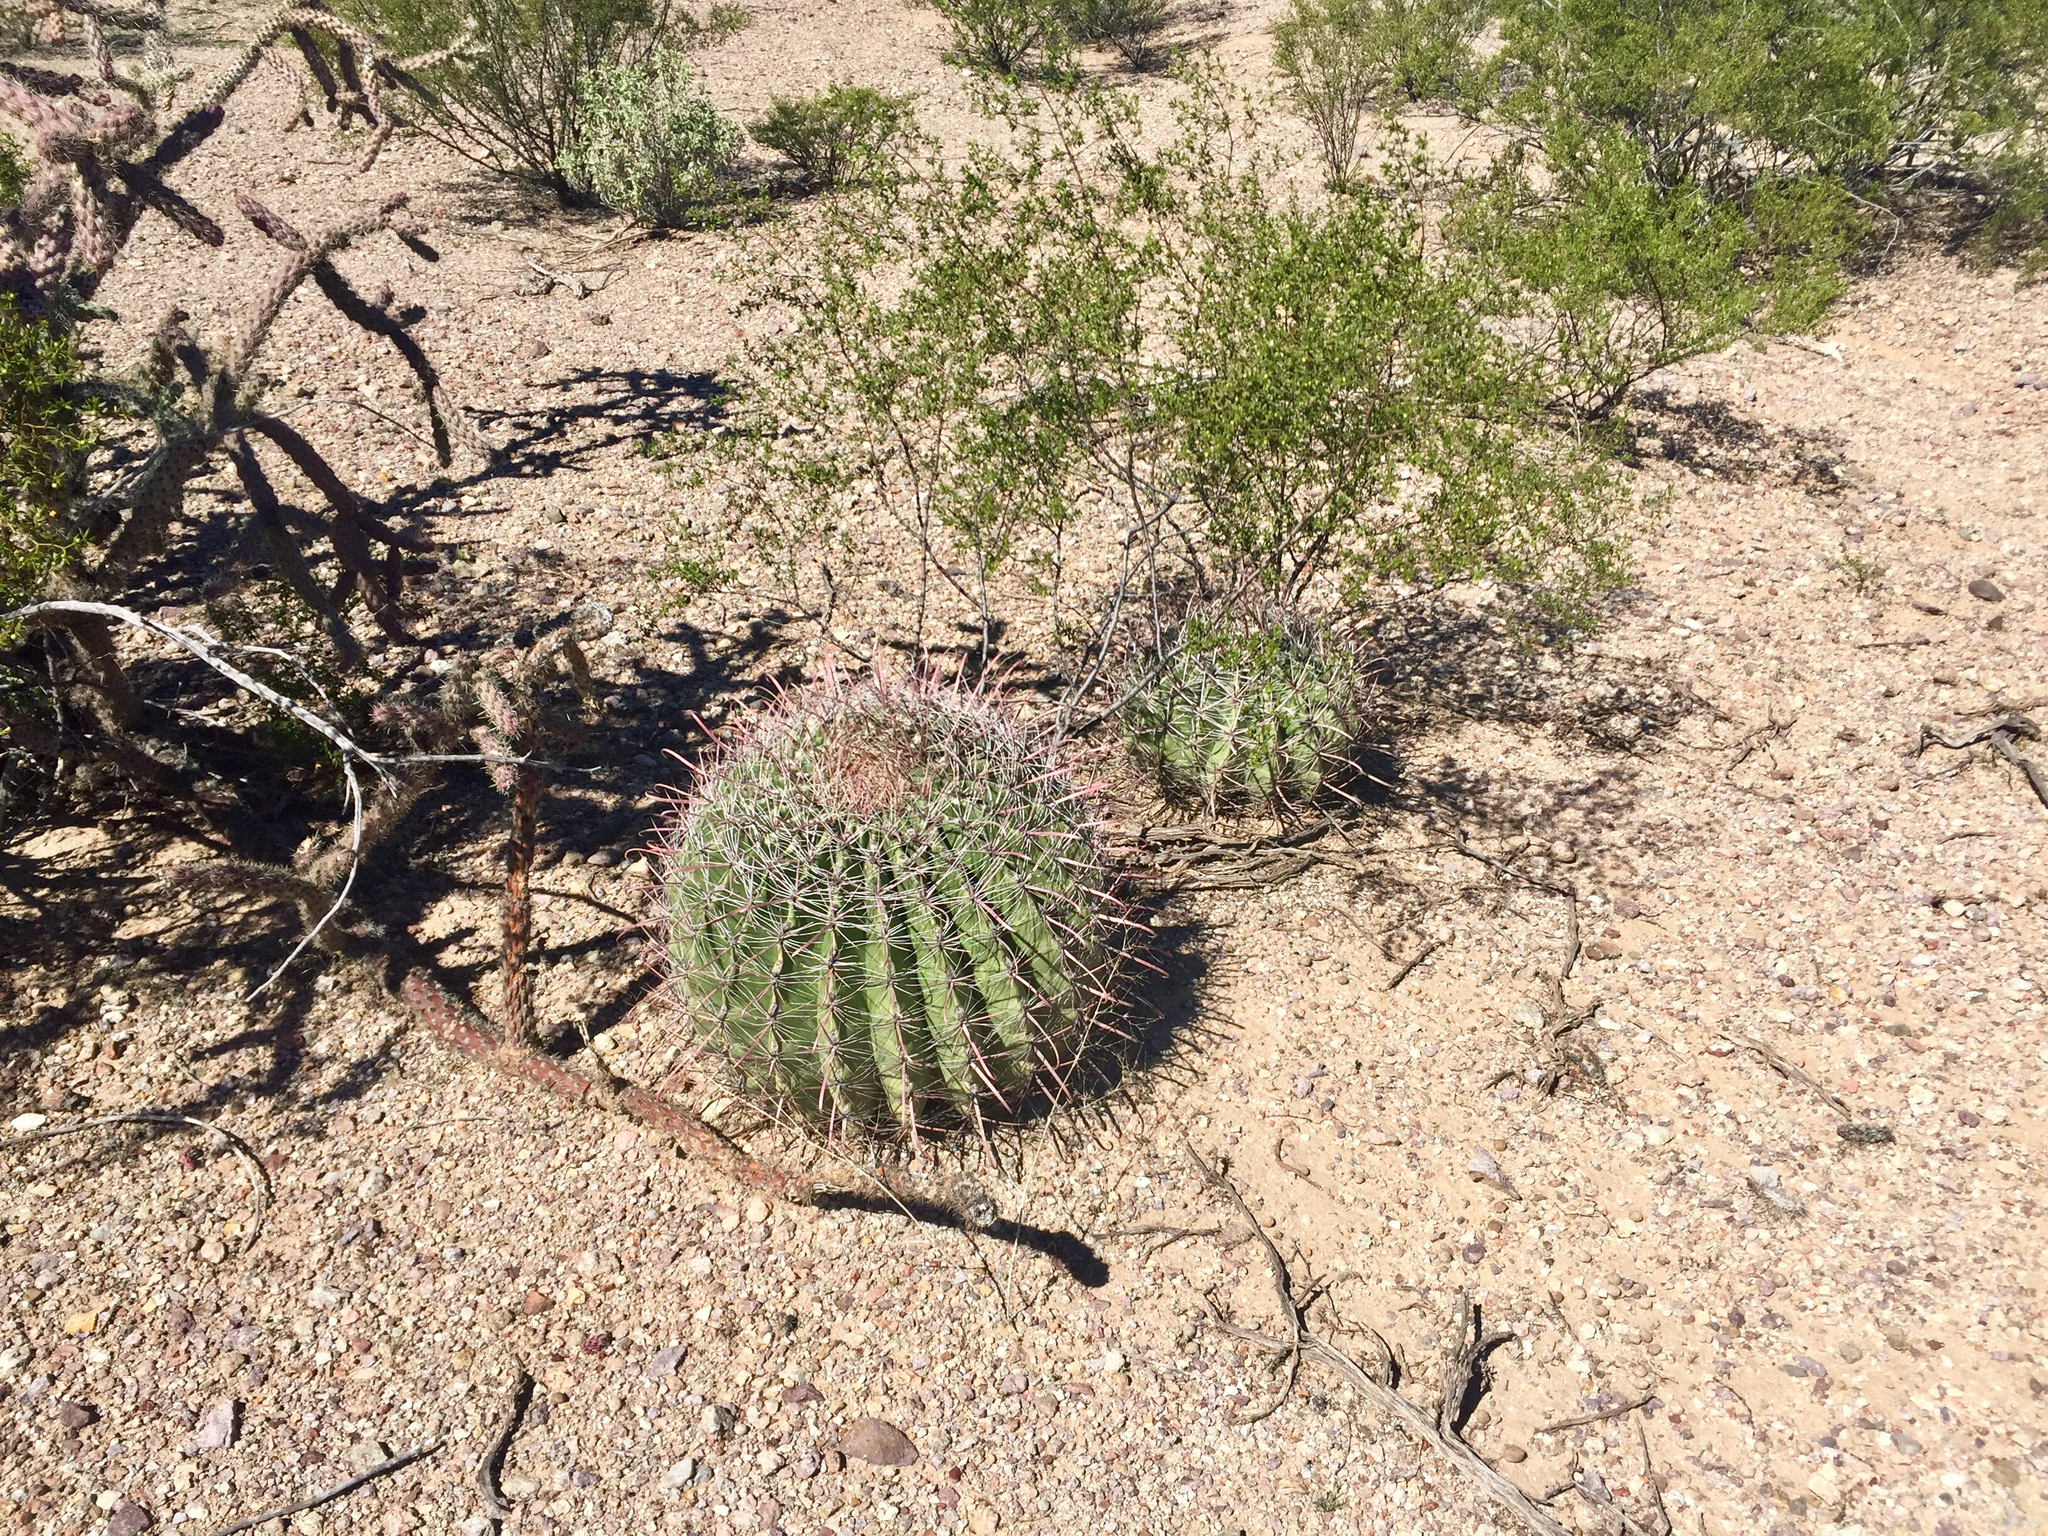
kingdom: Plantae
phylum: Tracheophyta
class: Magnoliopsida
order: Caryophyllales
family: Cactaceae
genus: Ferocactus
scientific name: Ferocactus wislizeni
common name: Candy barrel cactus
